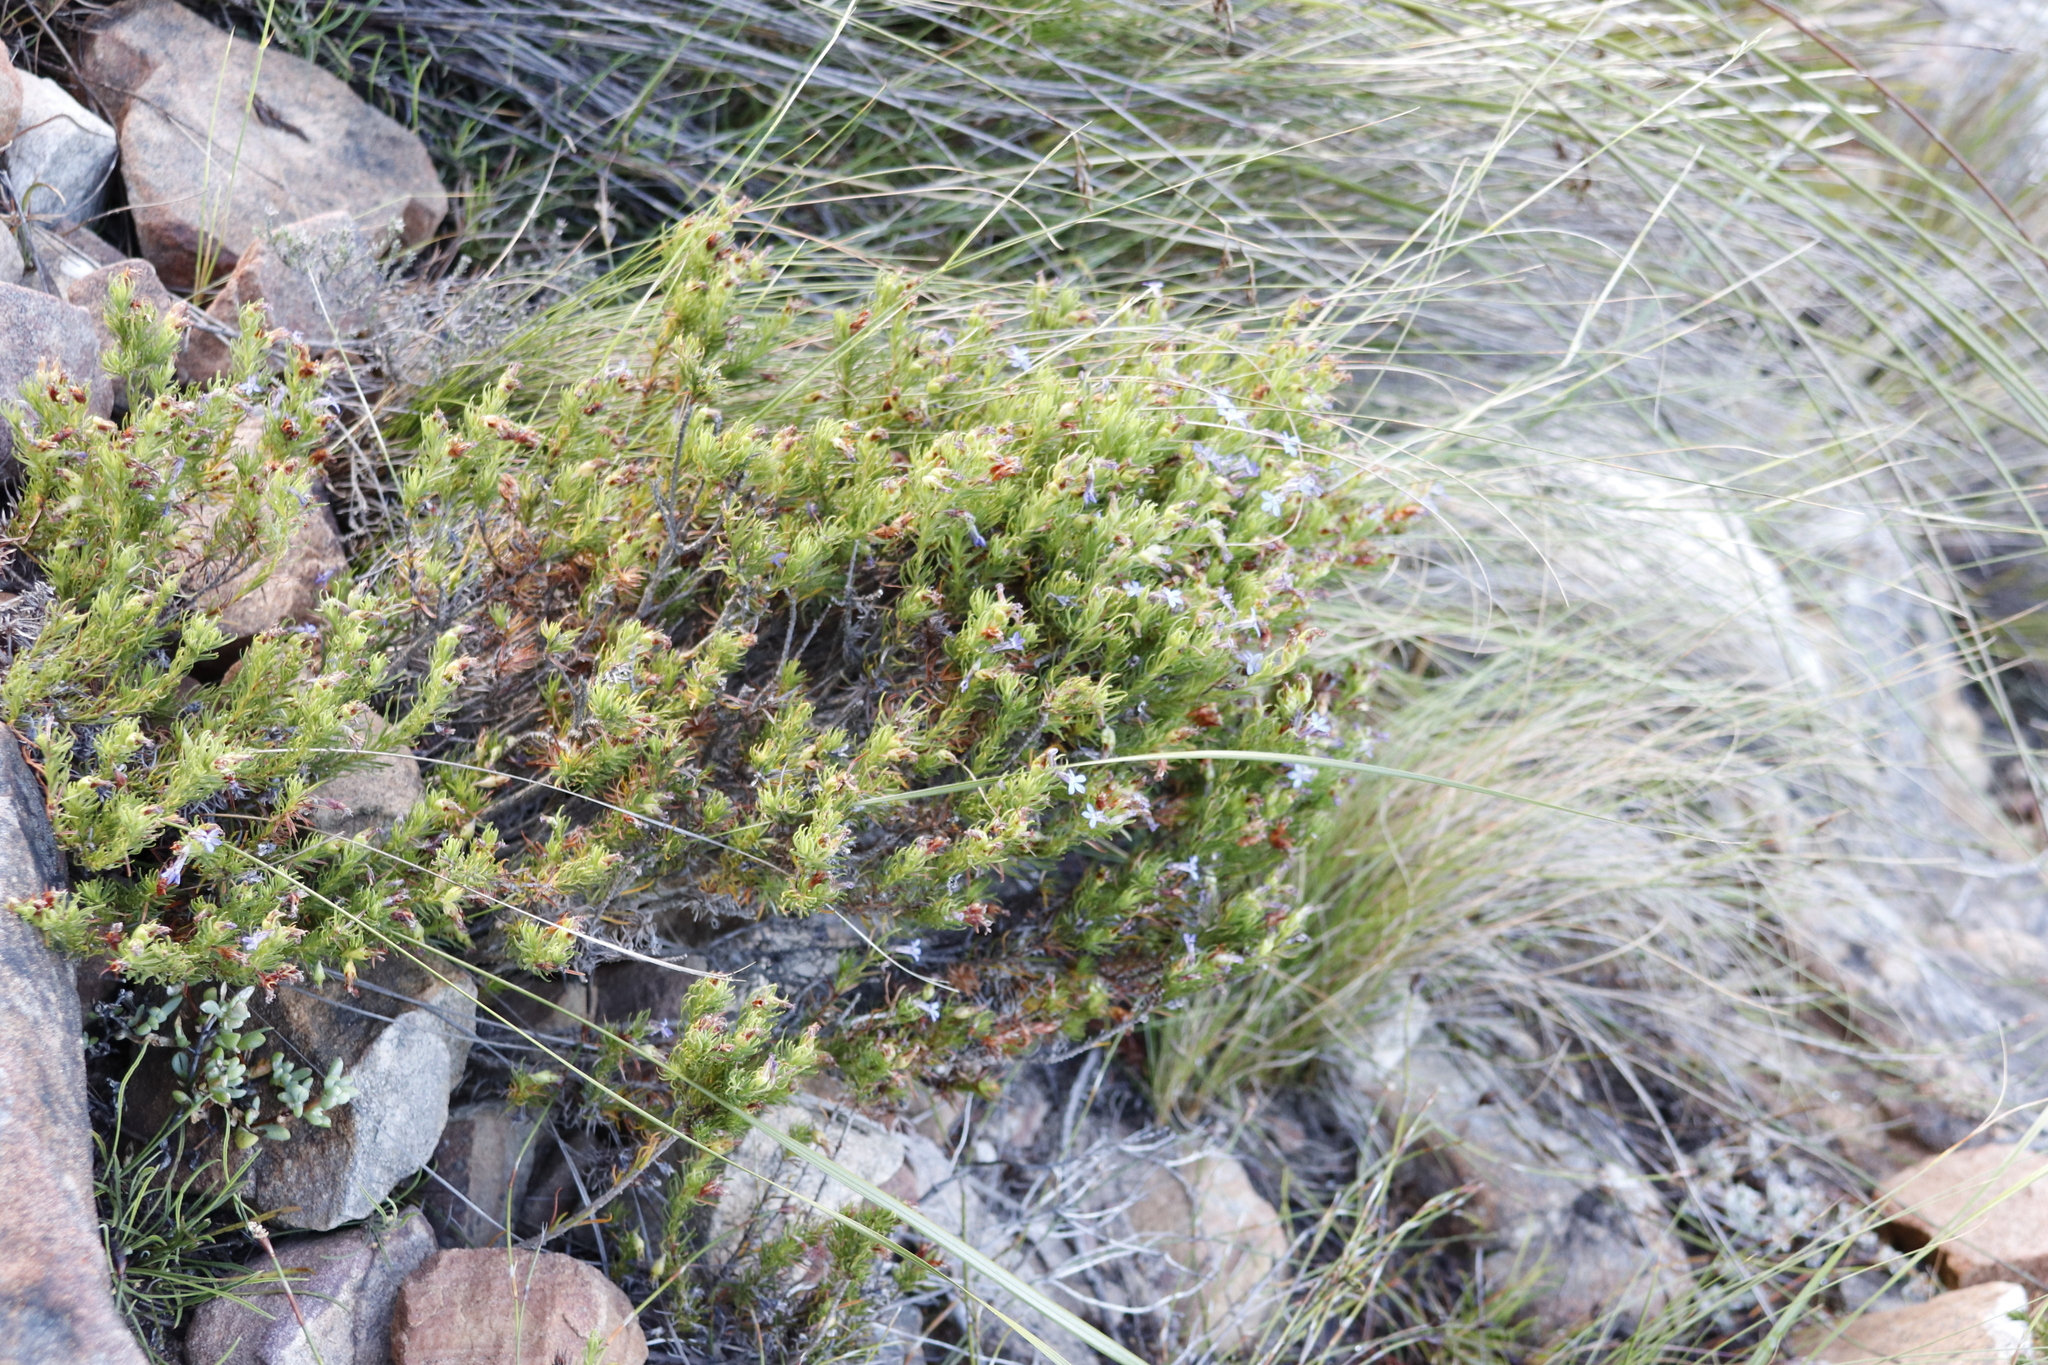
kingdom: Plantae
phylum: Tracheophyta
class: Magnoliopsida
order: Asterales
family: Campanulaceae
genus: Lobelia
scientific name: Lobelia pinifolia
